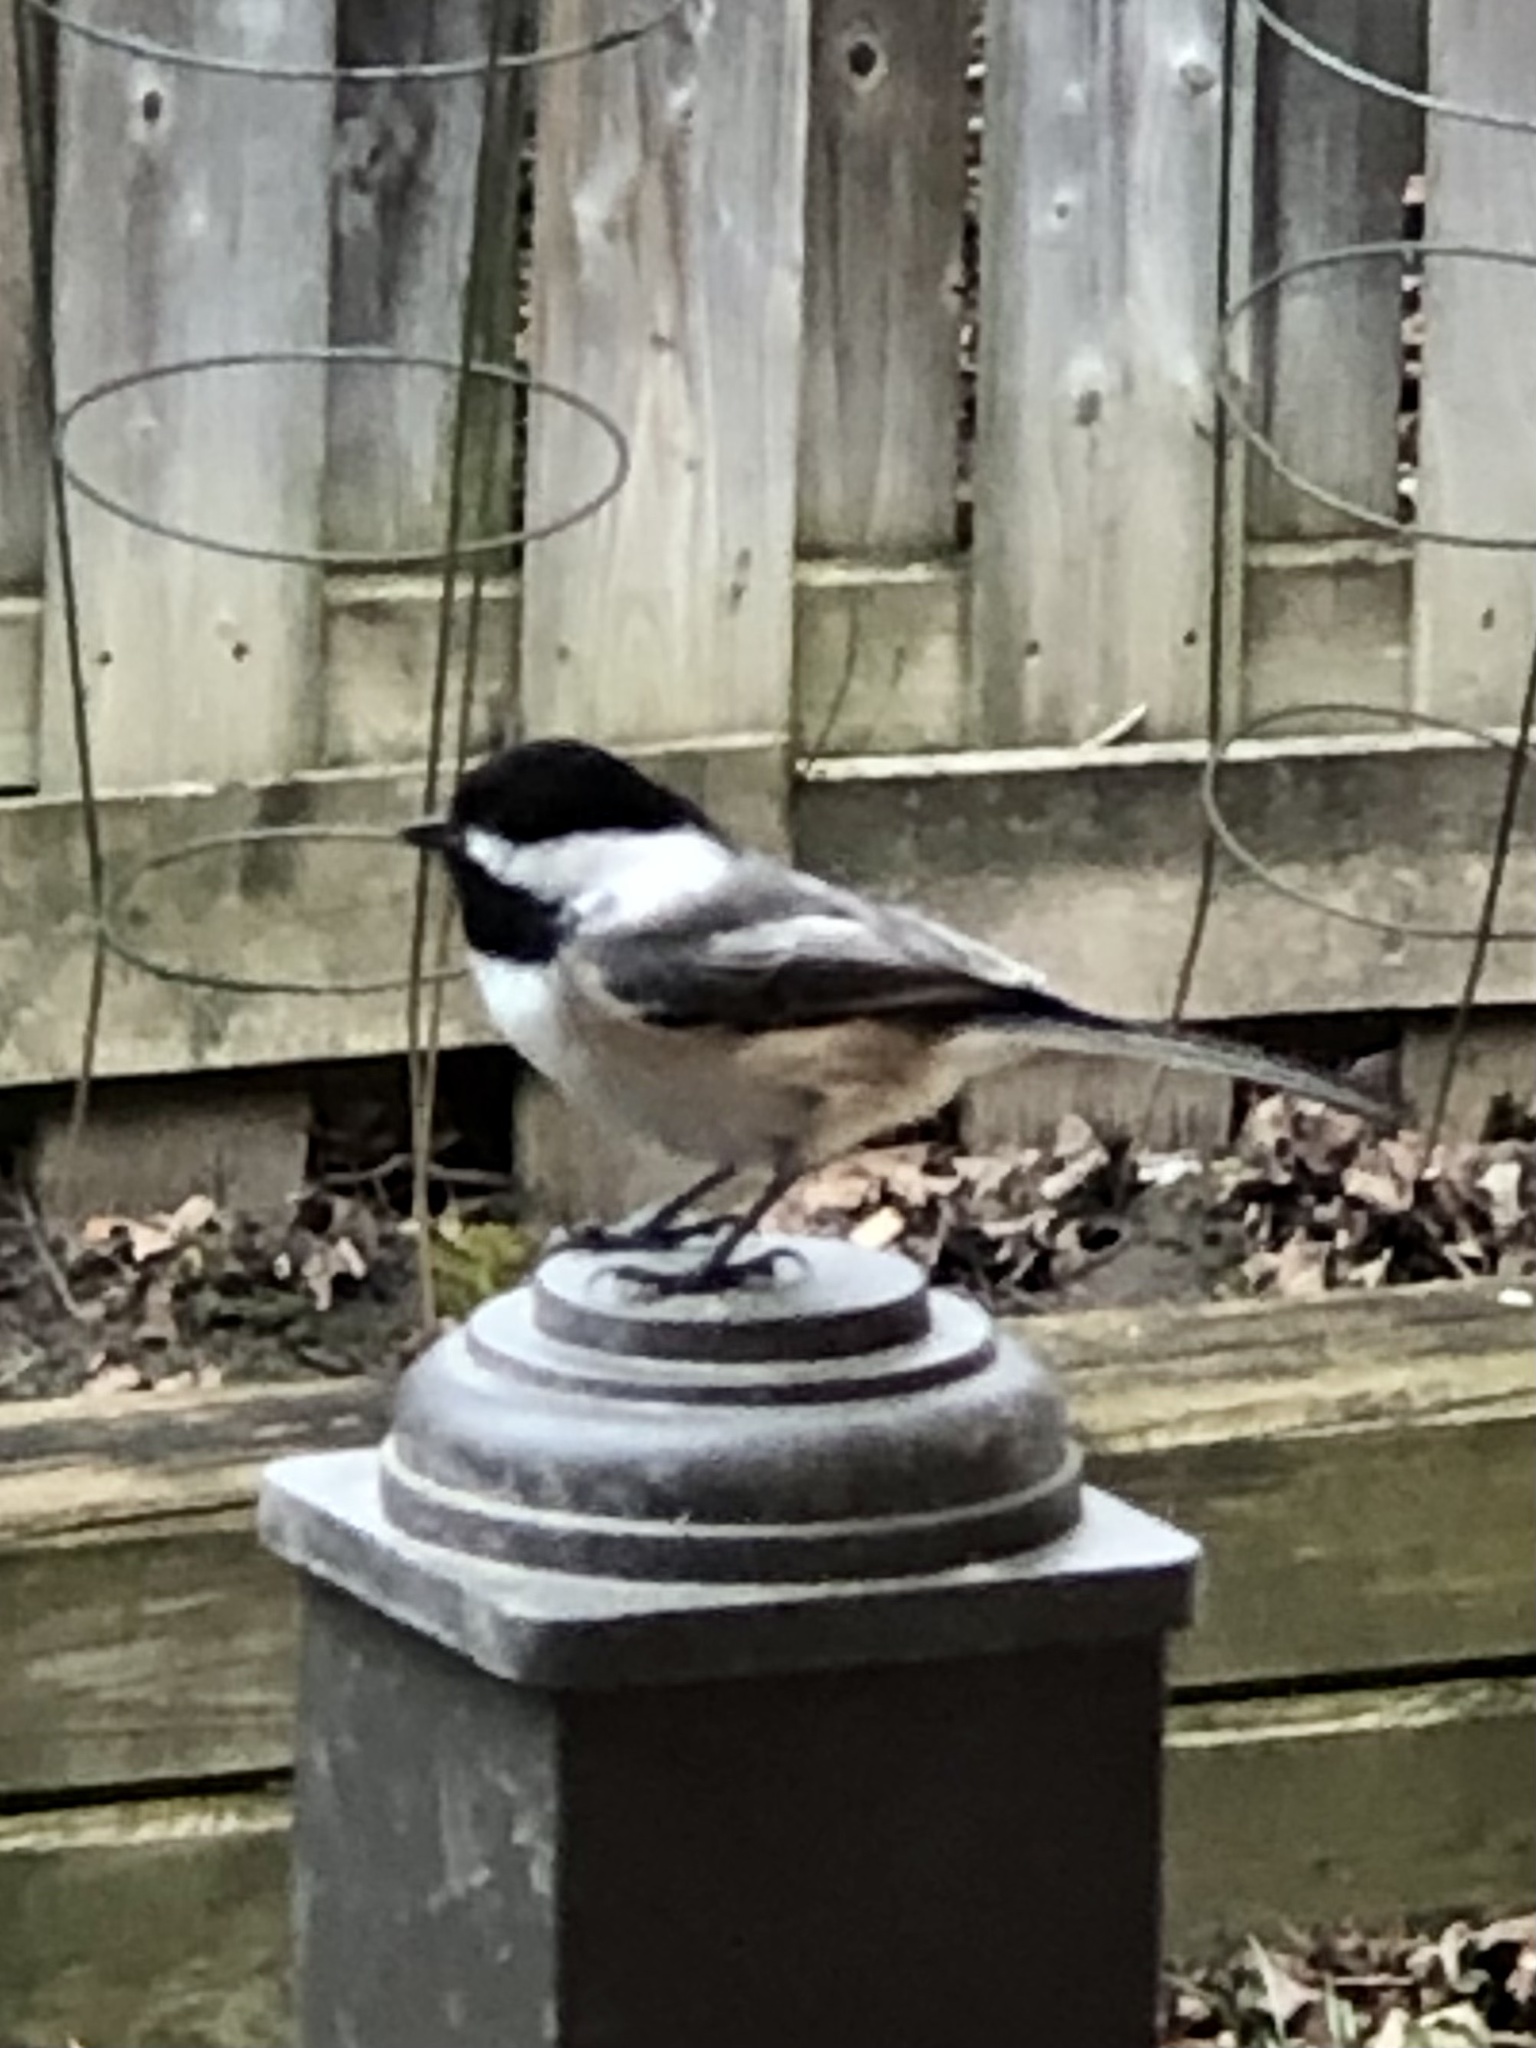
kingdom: Animalia
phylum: Chordata
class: Aves
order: Passeriformes
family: Paridae
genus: Poecile
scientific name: Poecile atricapillus
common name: Black-capped chickadee
